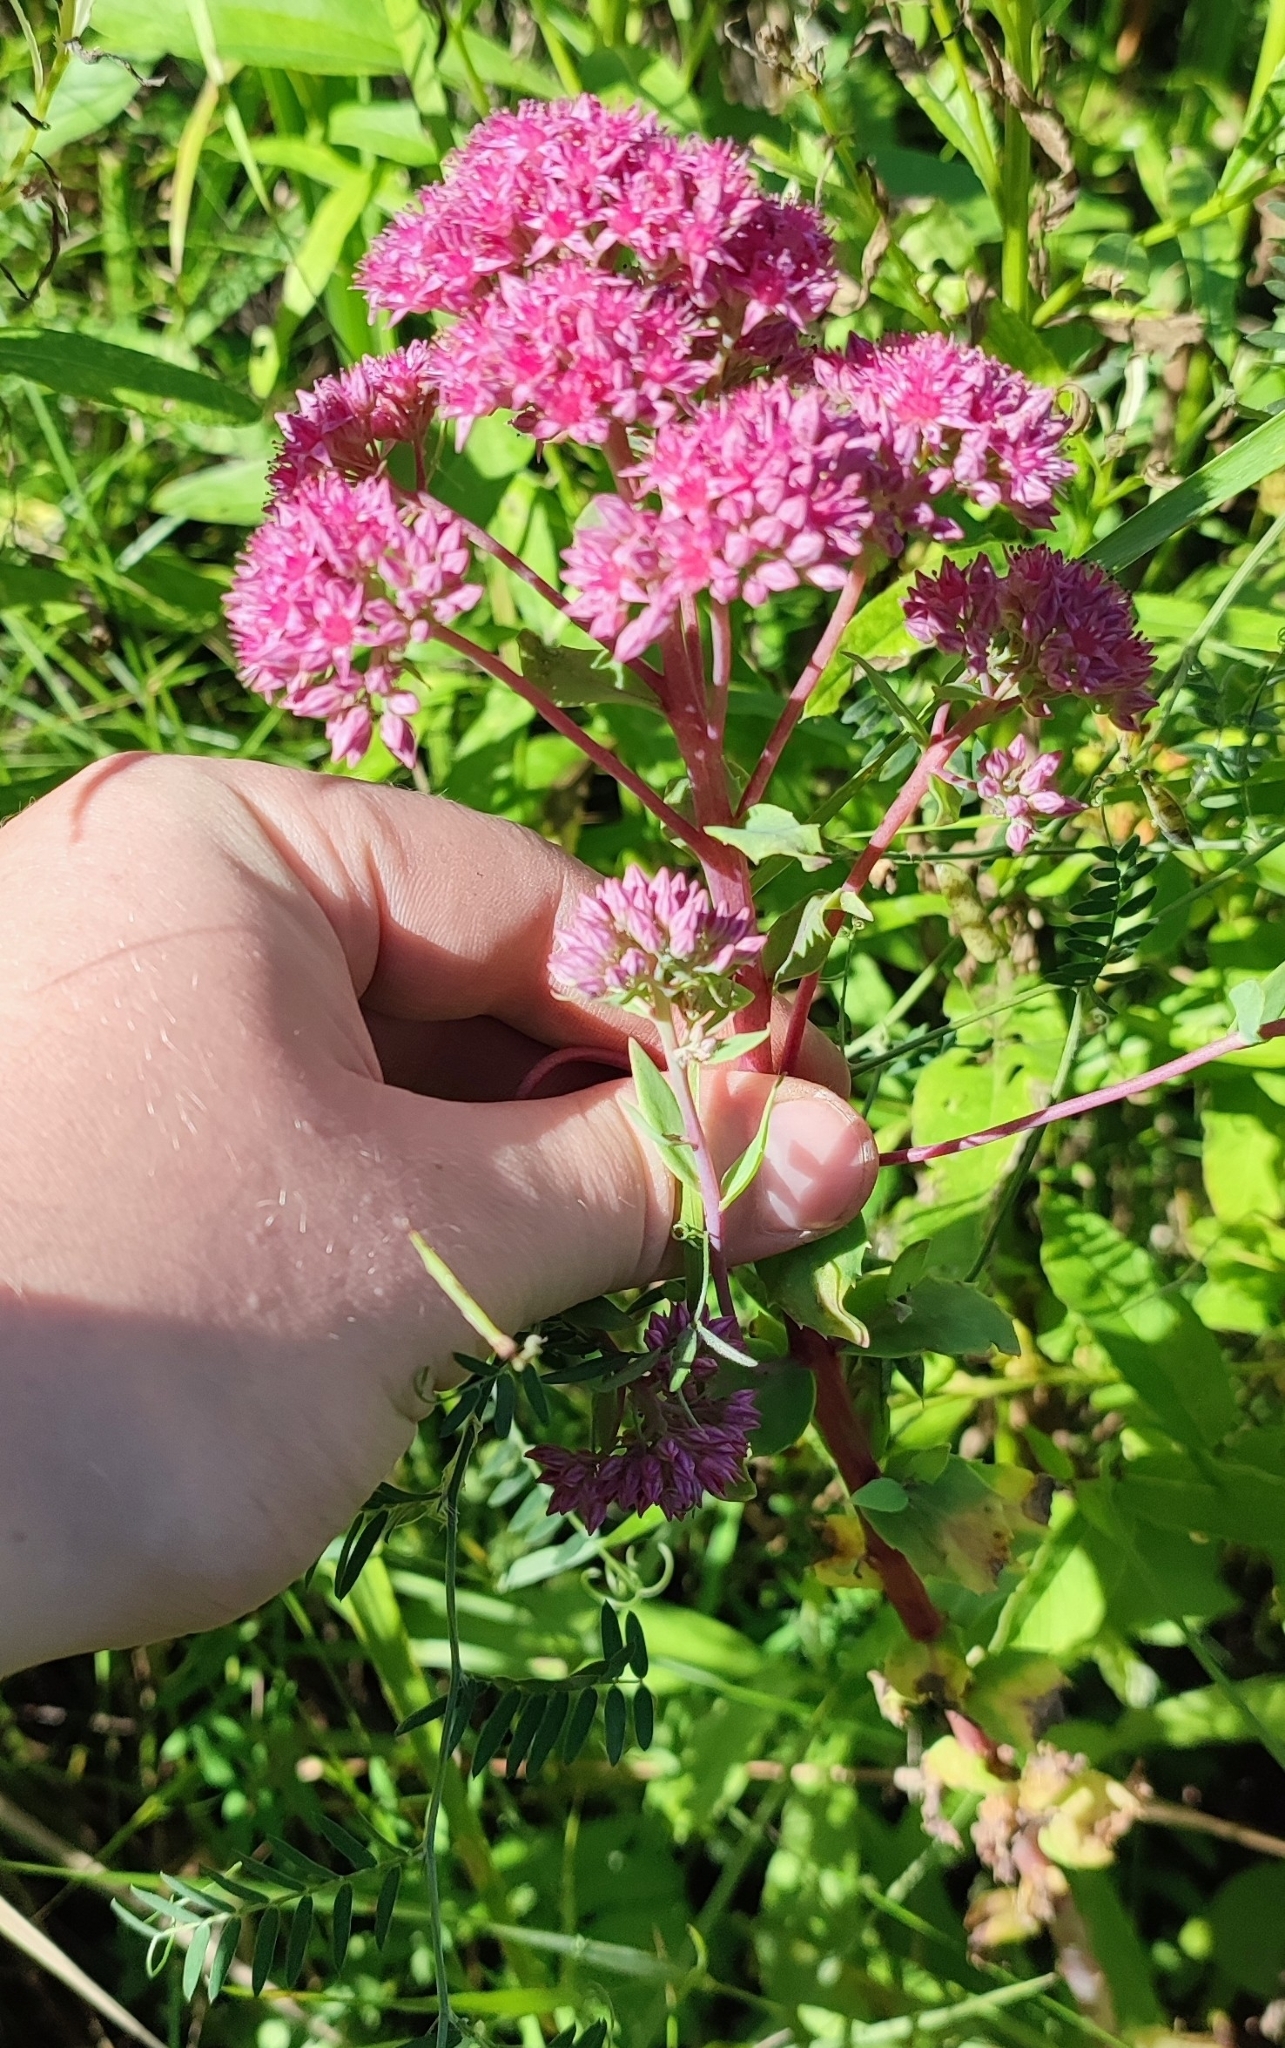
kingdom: Plantae
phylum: Tracheophyta
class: Magnoliopsida
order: Saxifragales
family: Crassulaceae
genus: Hylotelephium
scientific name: Hylotelephium telephium
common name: Live-forever
